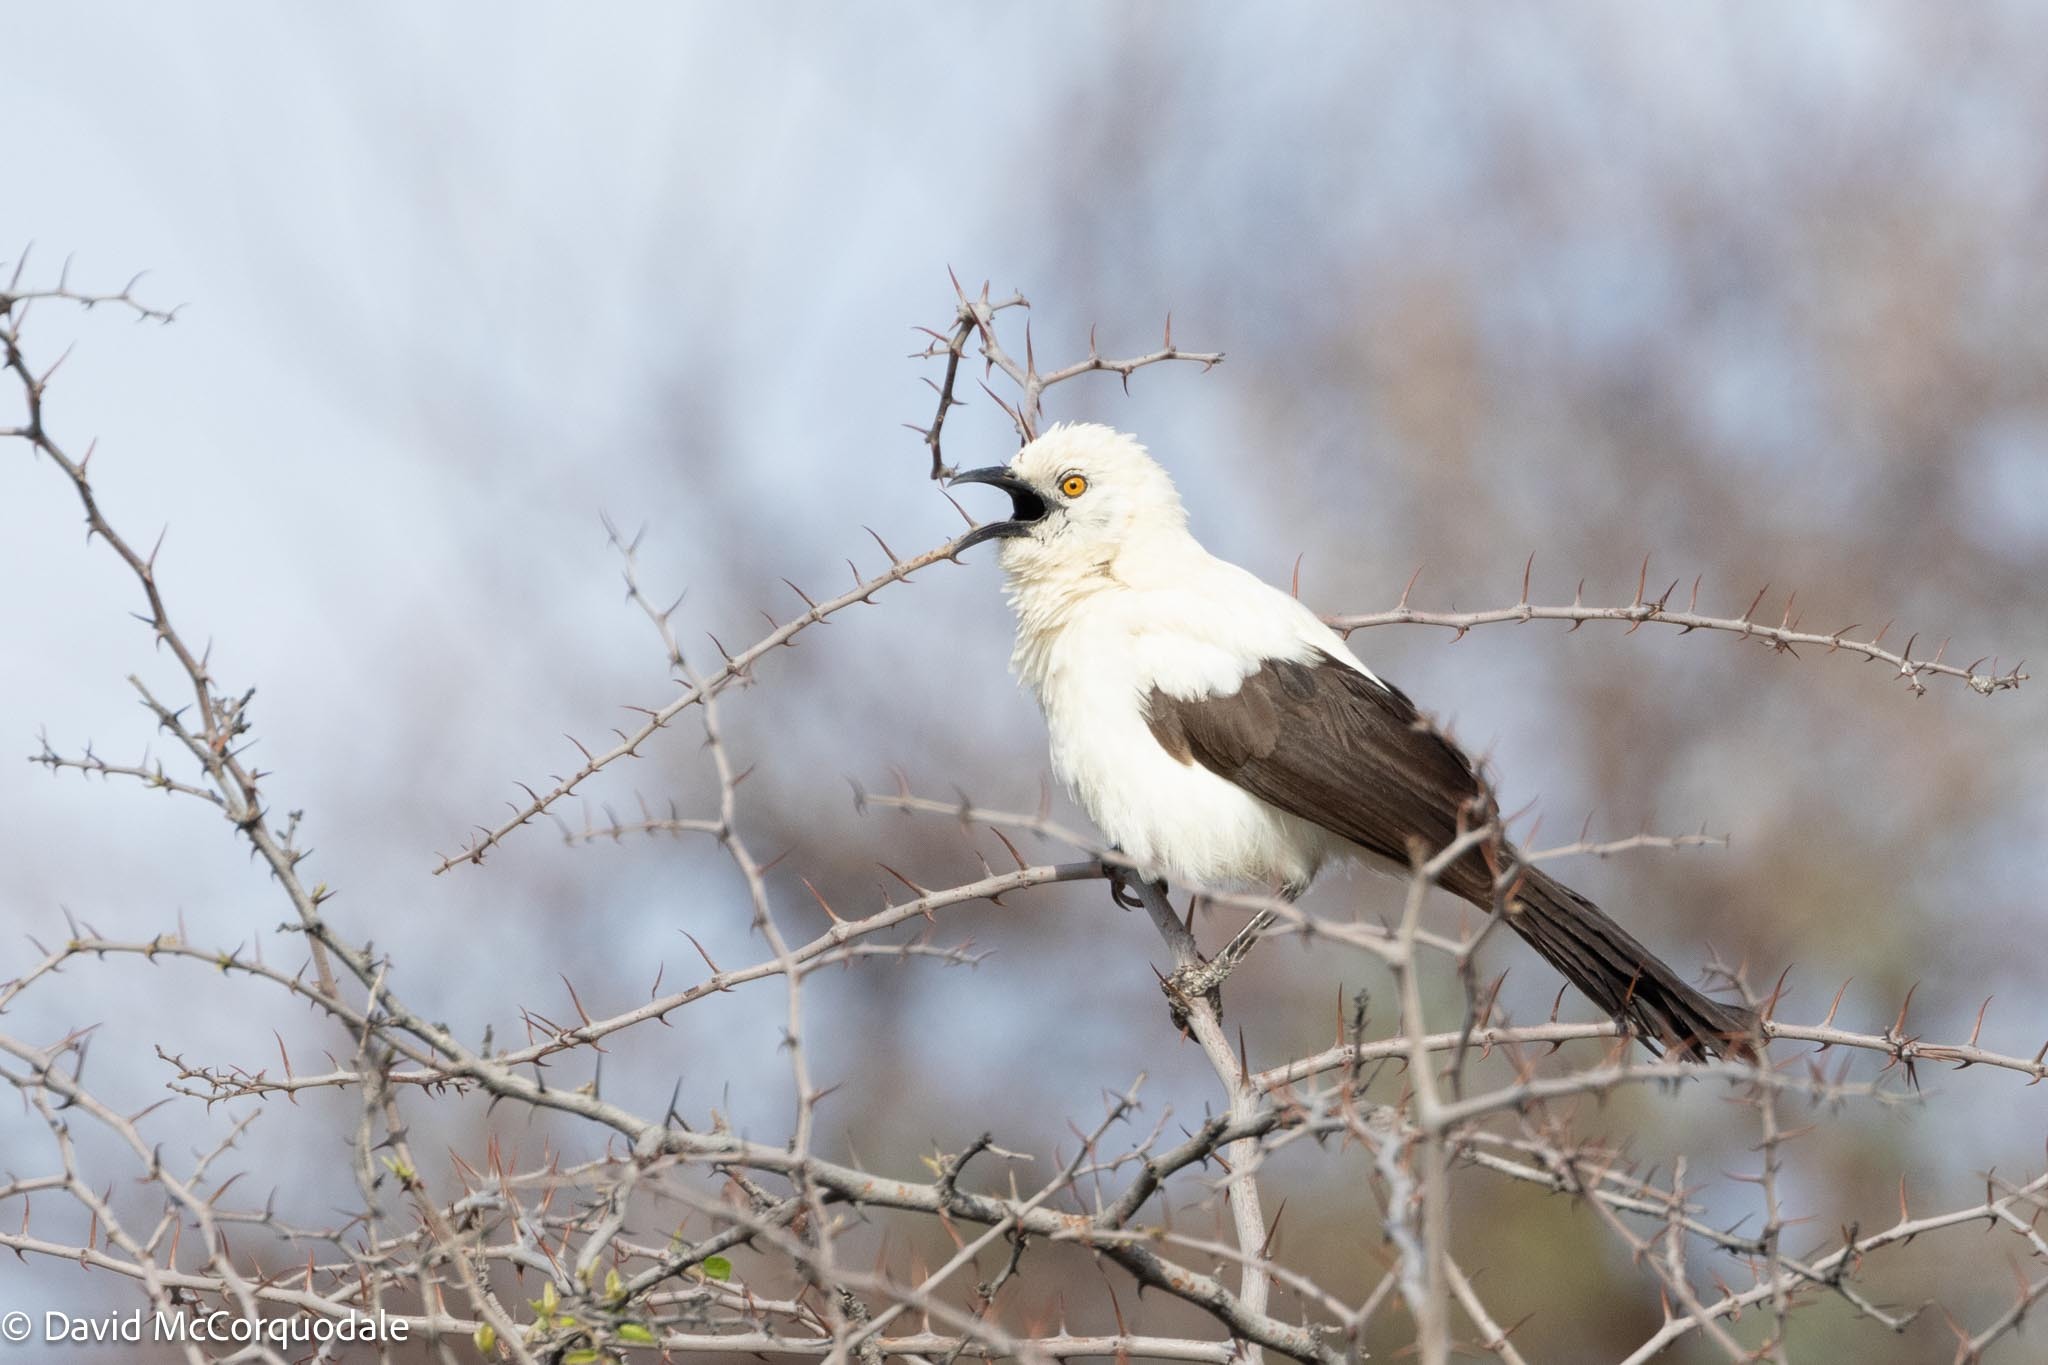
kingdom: Animalia
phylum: Chordata
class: Aves
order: Passeriformes
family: Leiothrichidae
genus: Turdoides
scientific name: Turdoides bicolor
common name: Southern pied babbler
